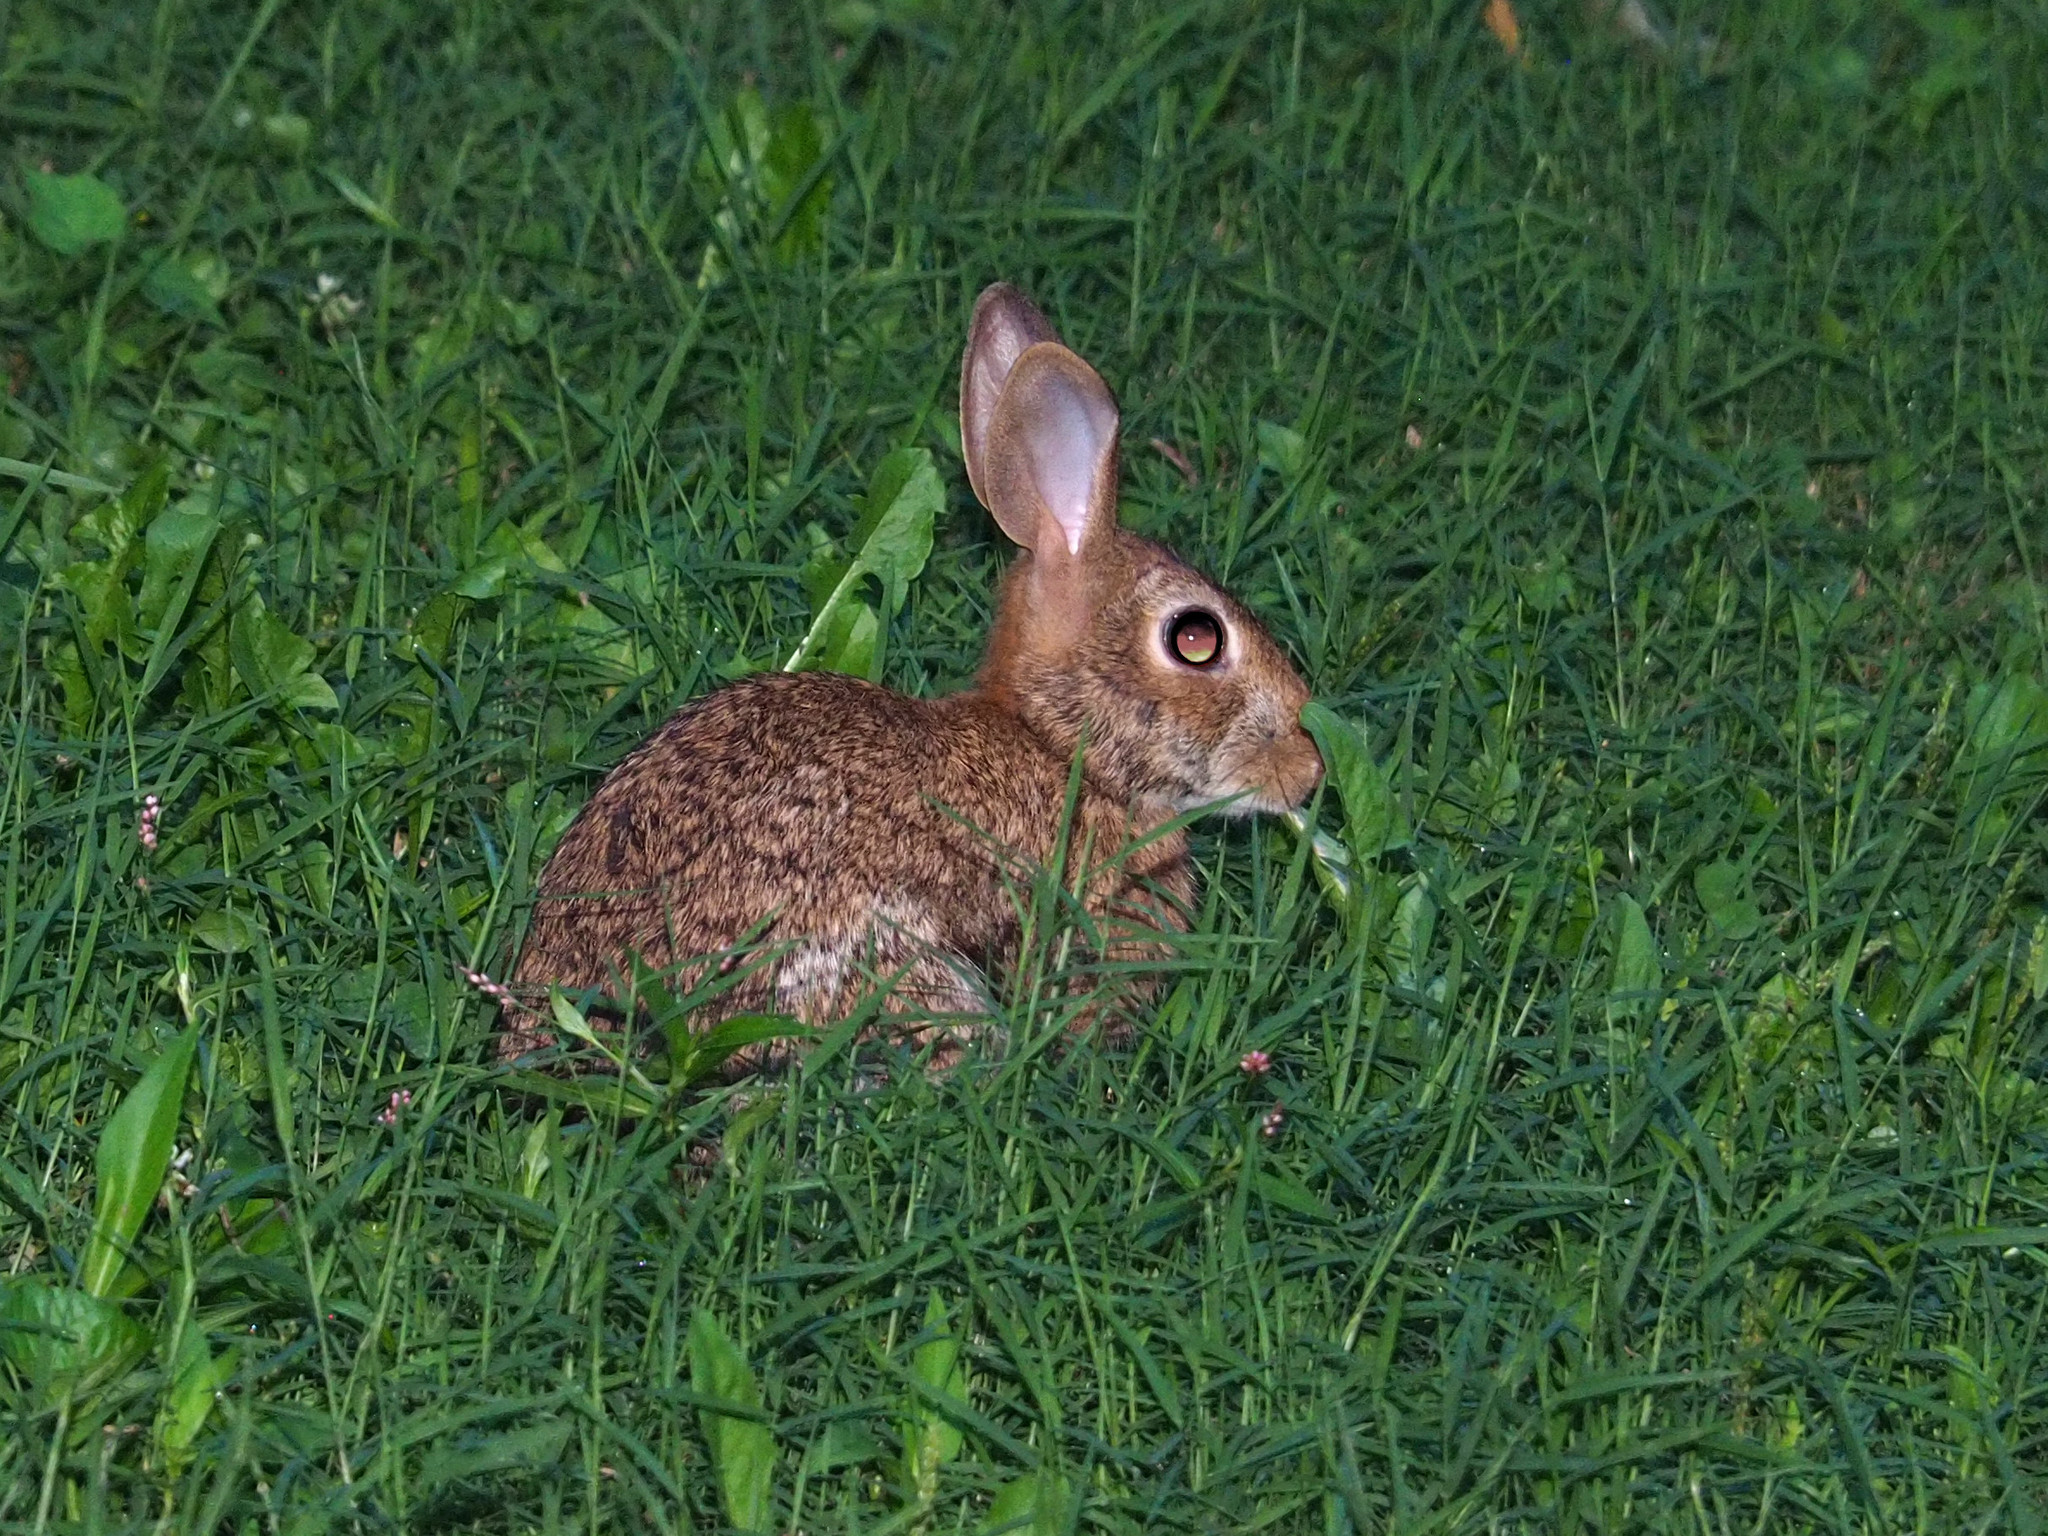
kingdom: Animalia
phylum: Chordata
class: Mammalia
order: Lagomorpha
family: Leporidae
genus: Sylvilagus
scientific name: Sylvilagus floridanus
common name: Eastern cottontail
